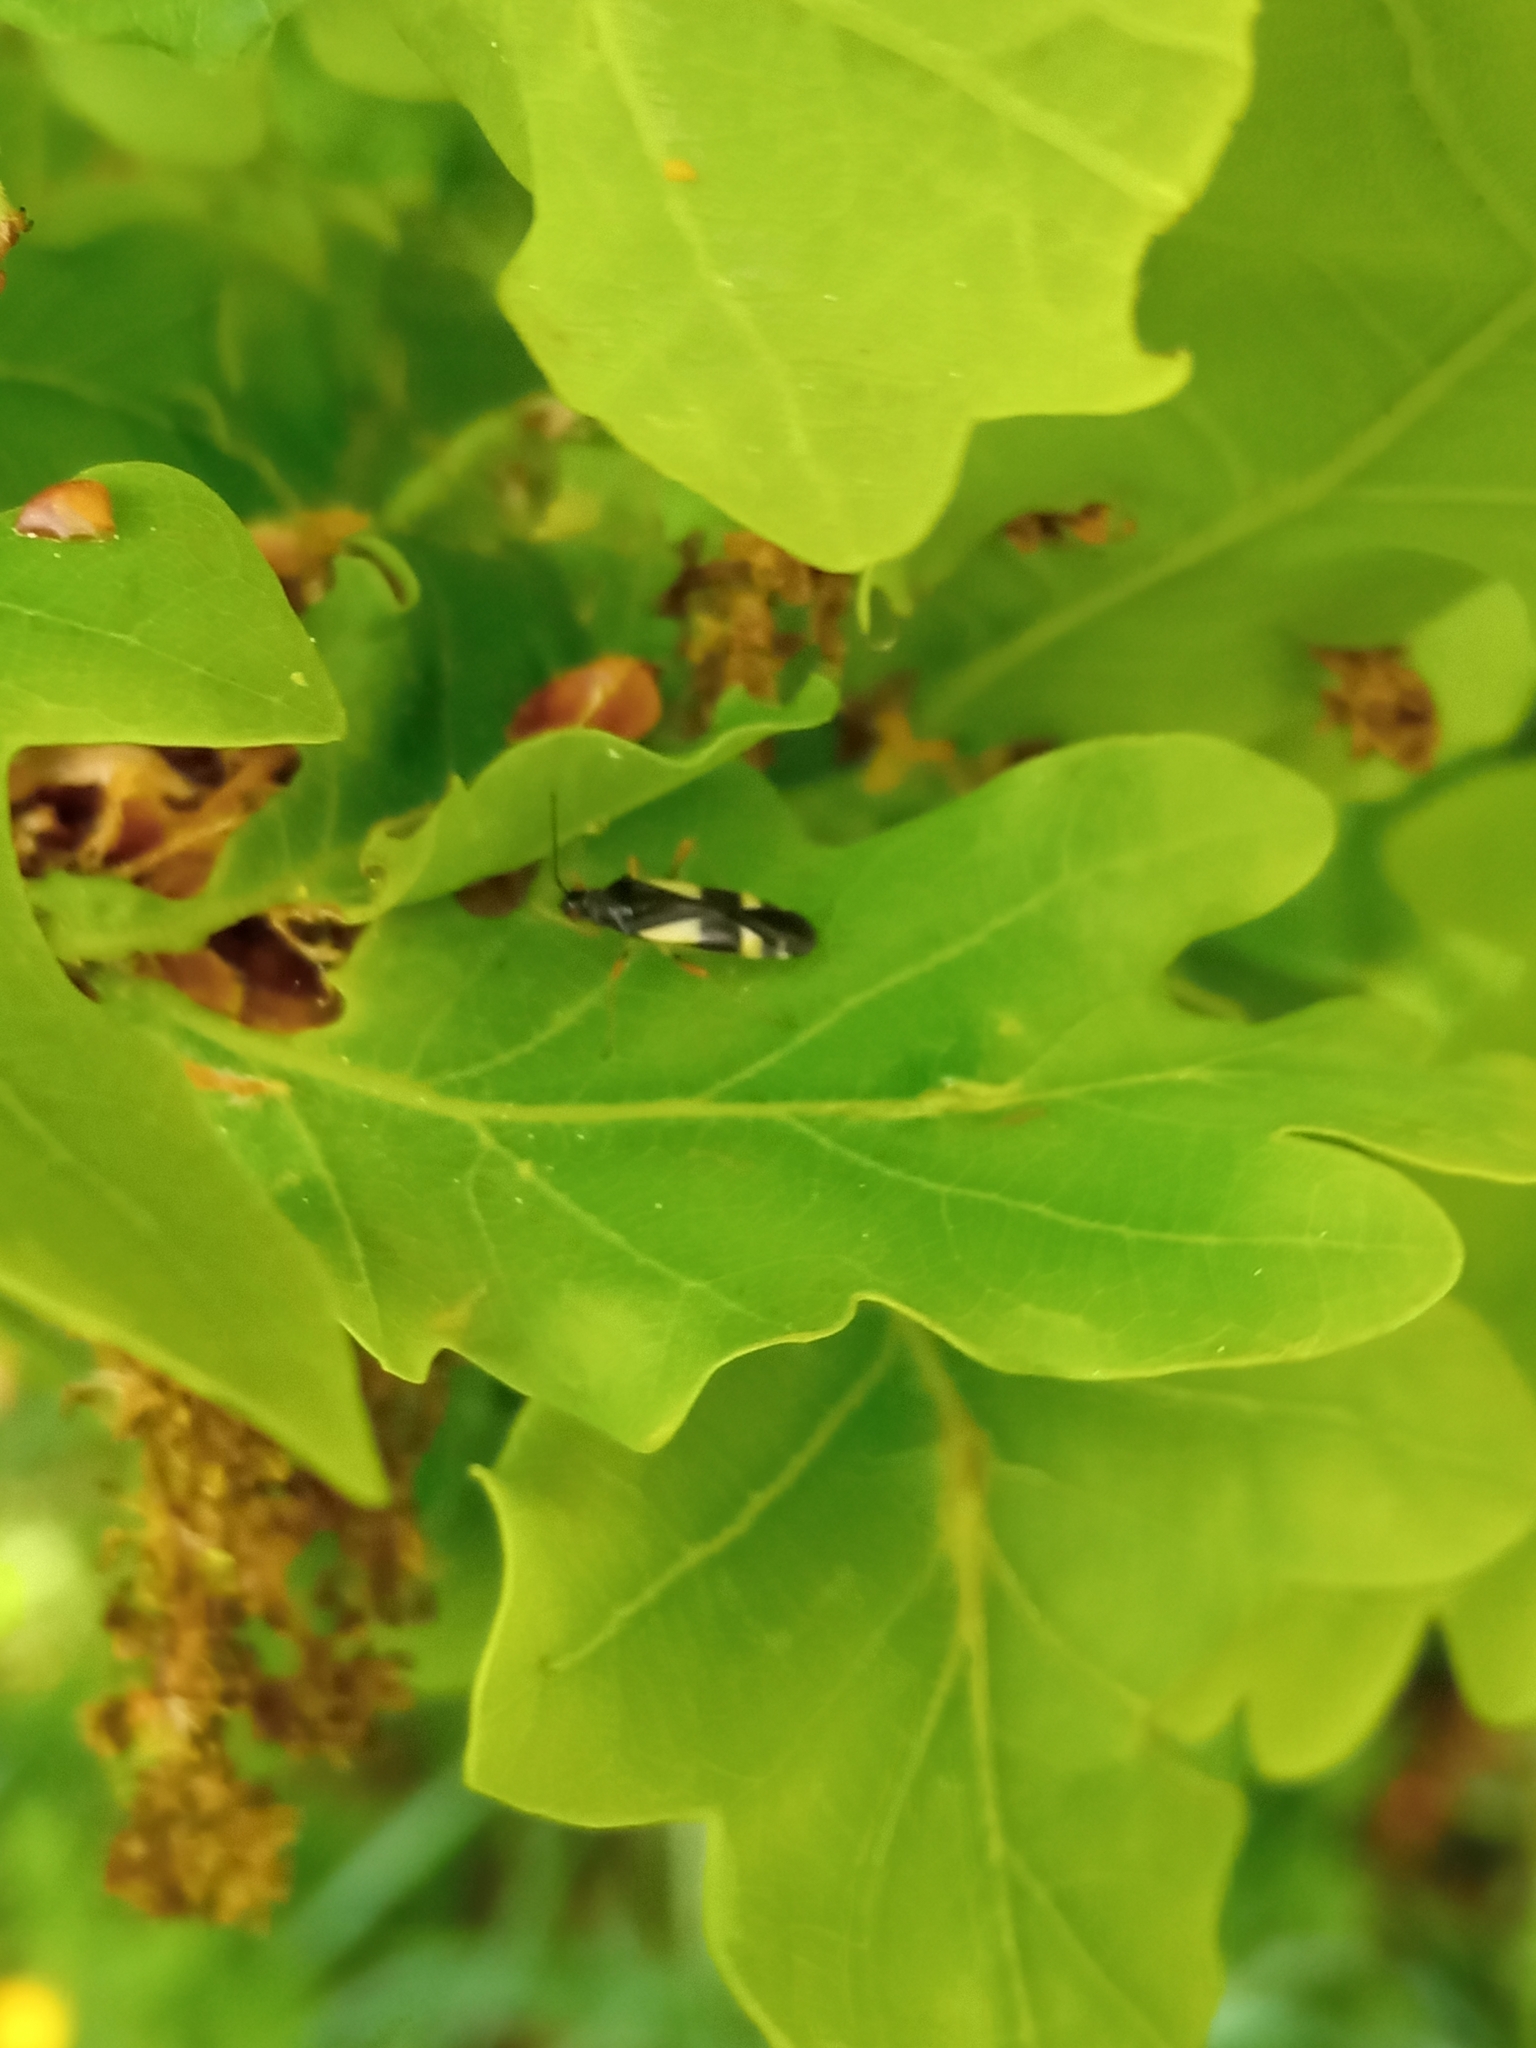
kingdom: Animalia
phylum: Arthropoda
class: Insecta
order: Hemiptera
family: Miridae
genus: Dryophilocoris
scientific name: Dryophilocoris flavoquadrimaculatus
